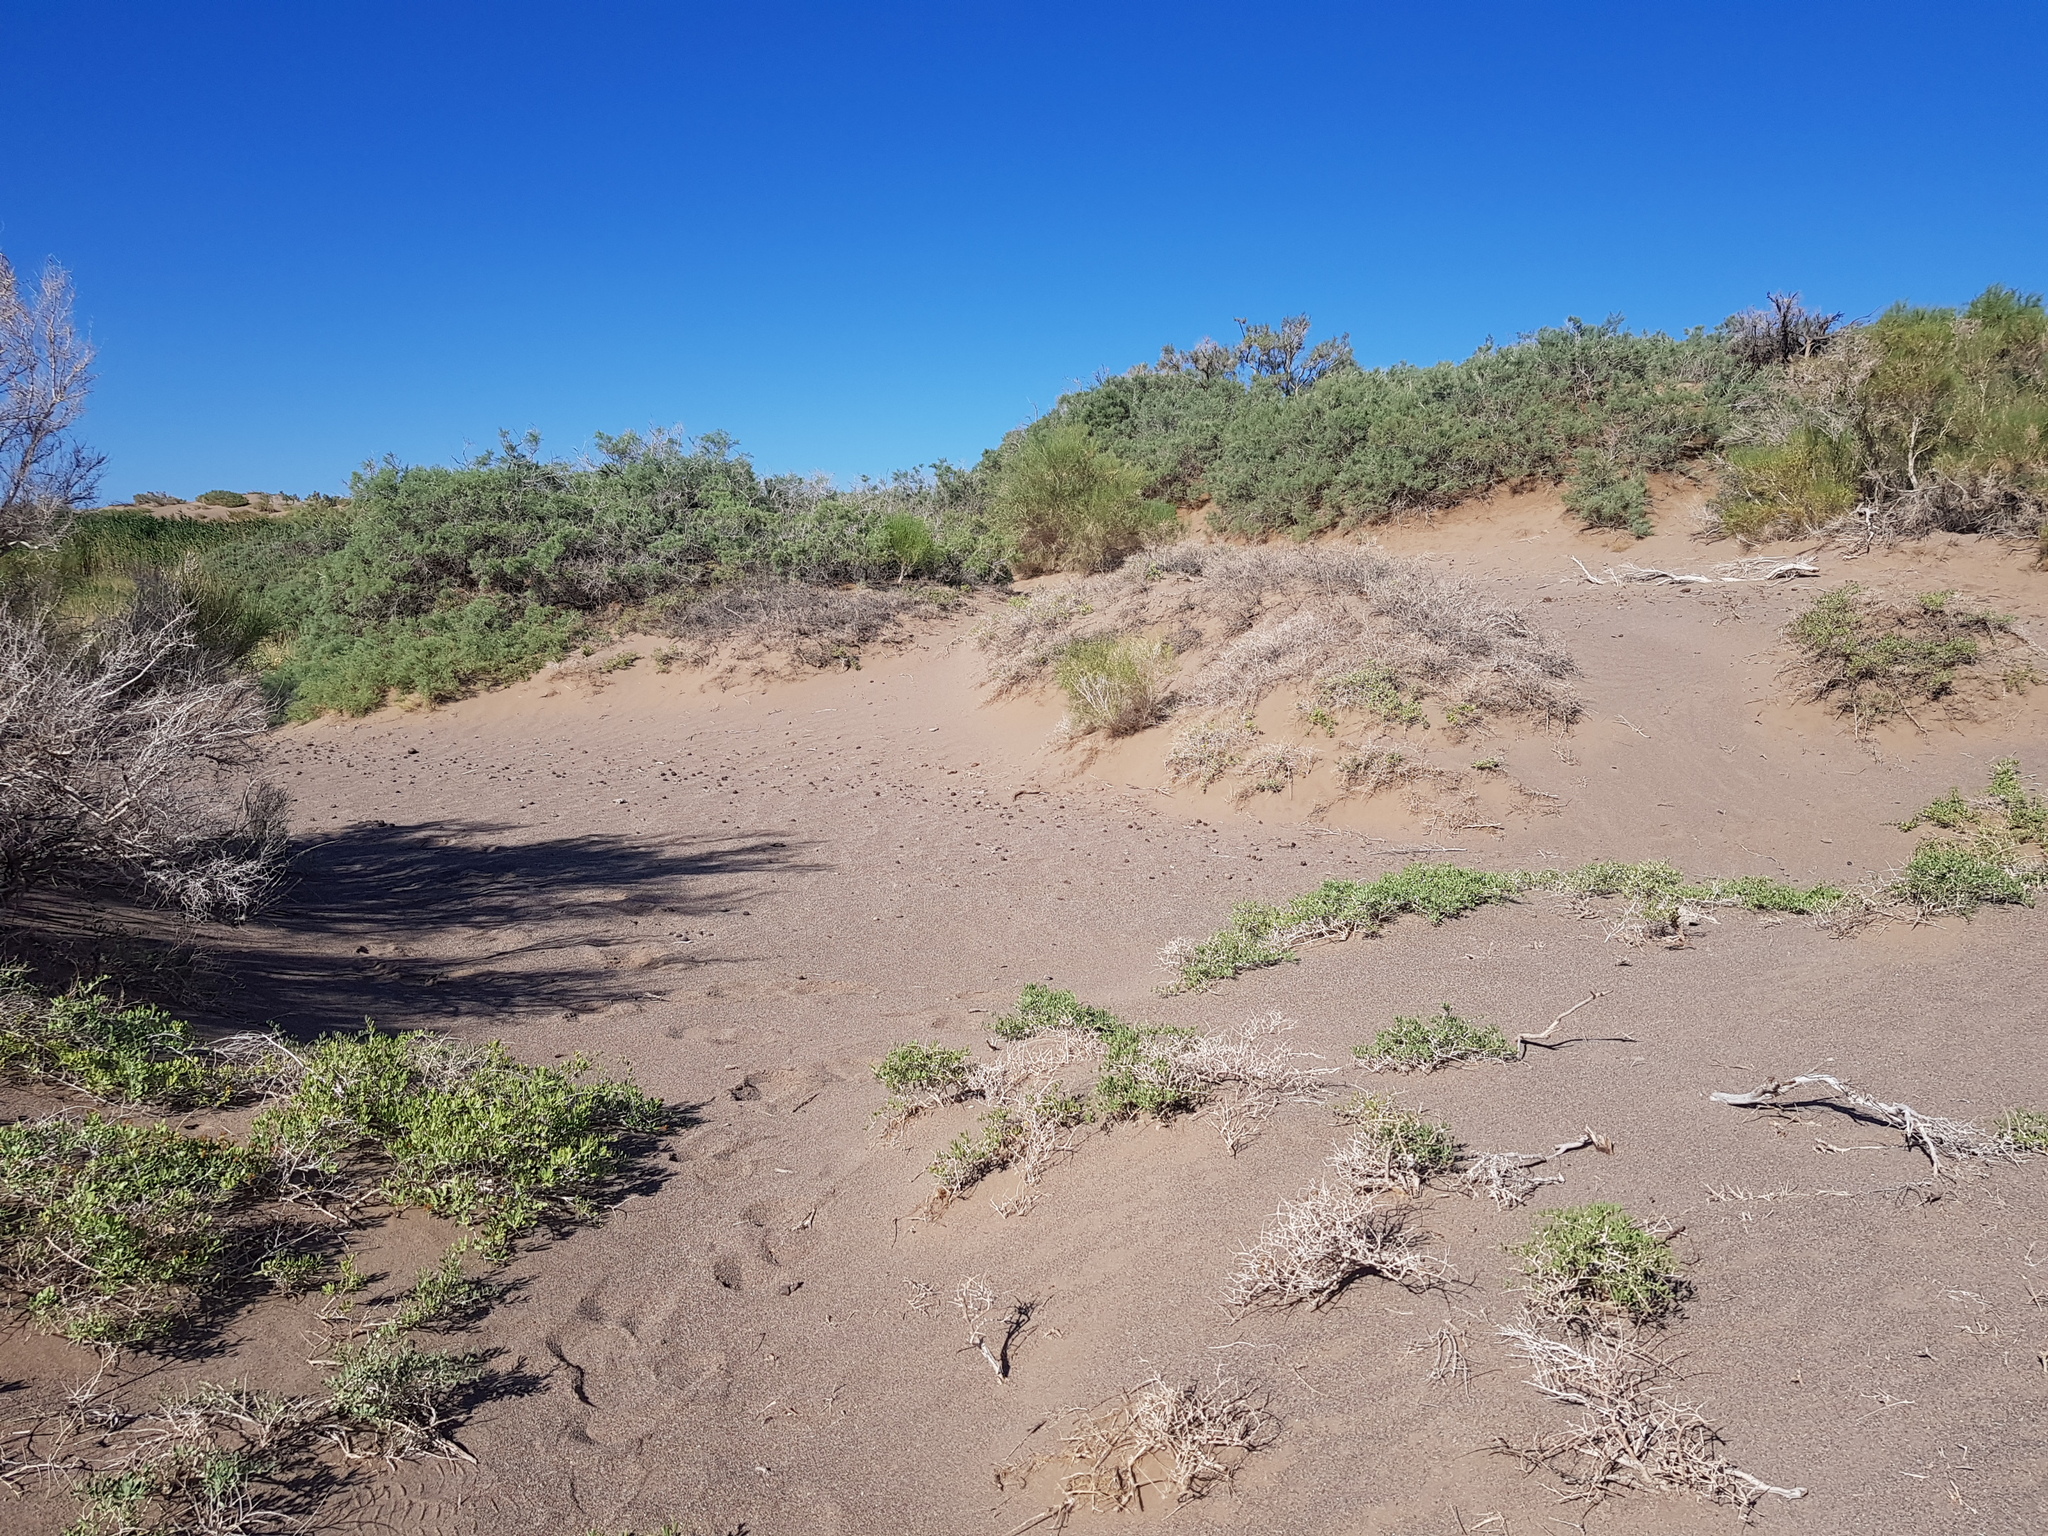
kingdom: Plantae
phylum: Tracheophyta
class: Magnoliopsida
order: Sapindales
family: Nitrariaceae
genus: Nitraria
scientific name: Nitraria sibirica
